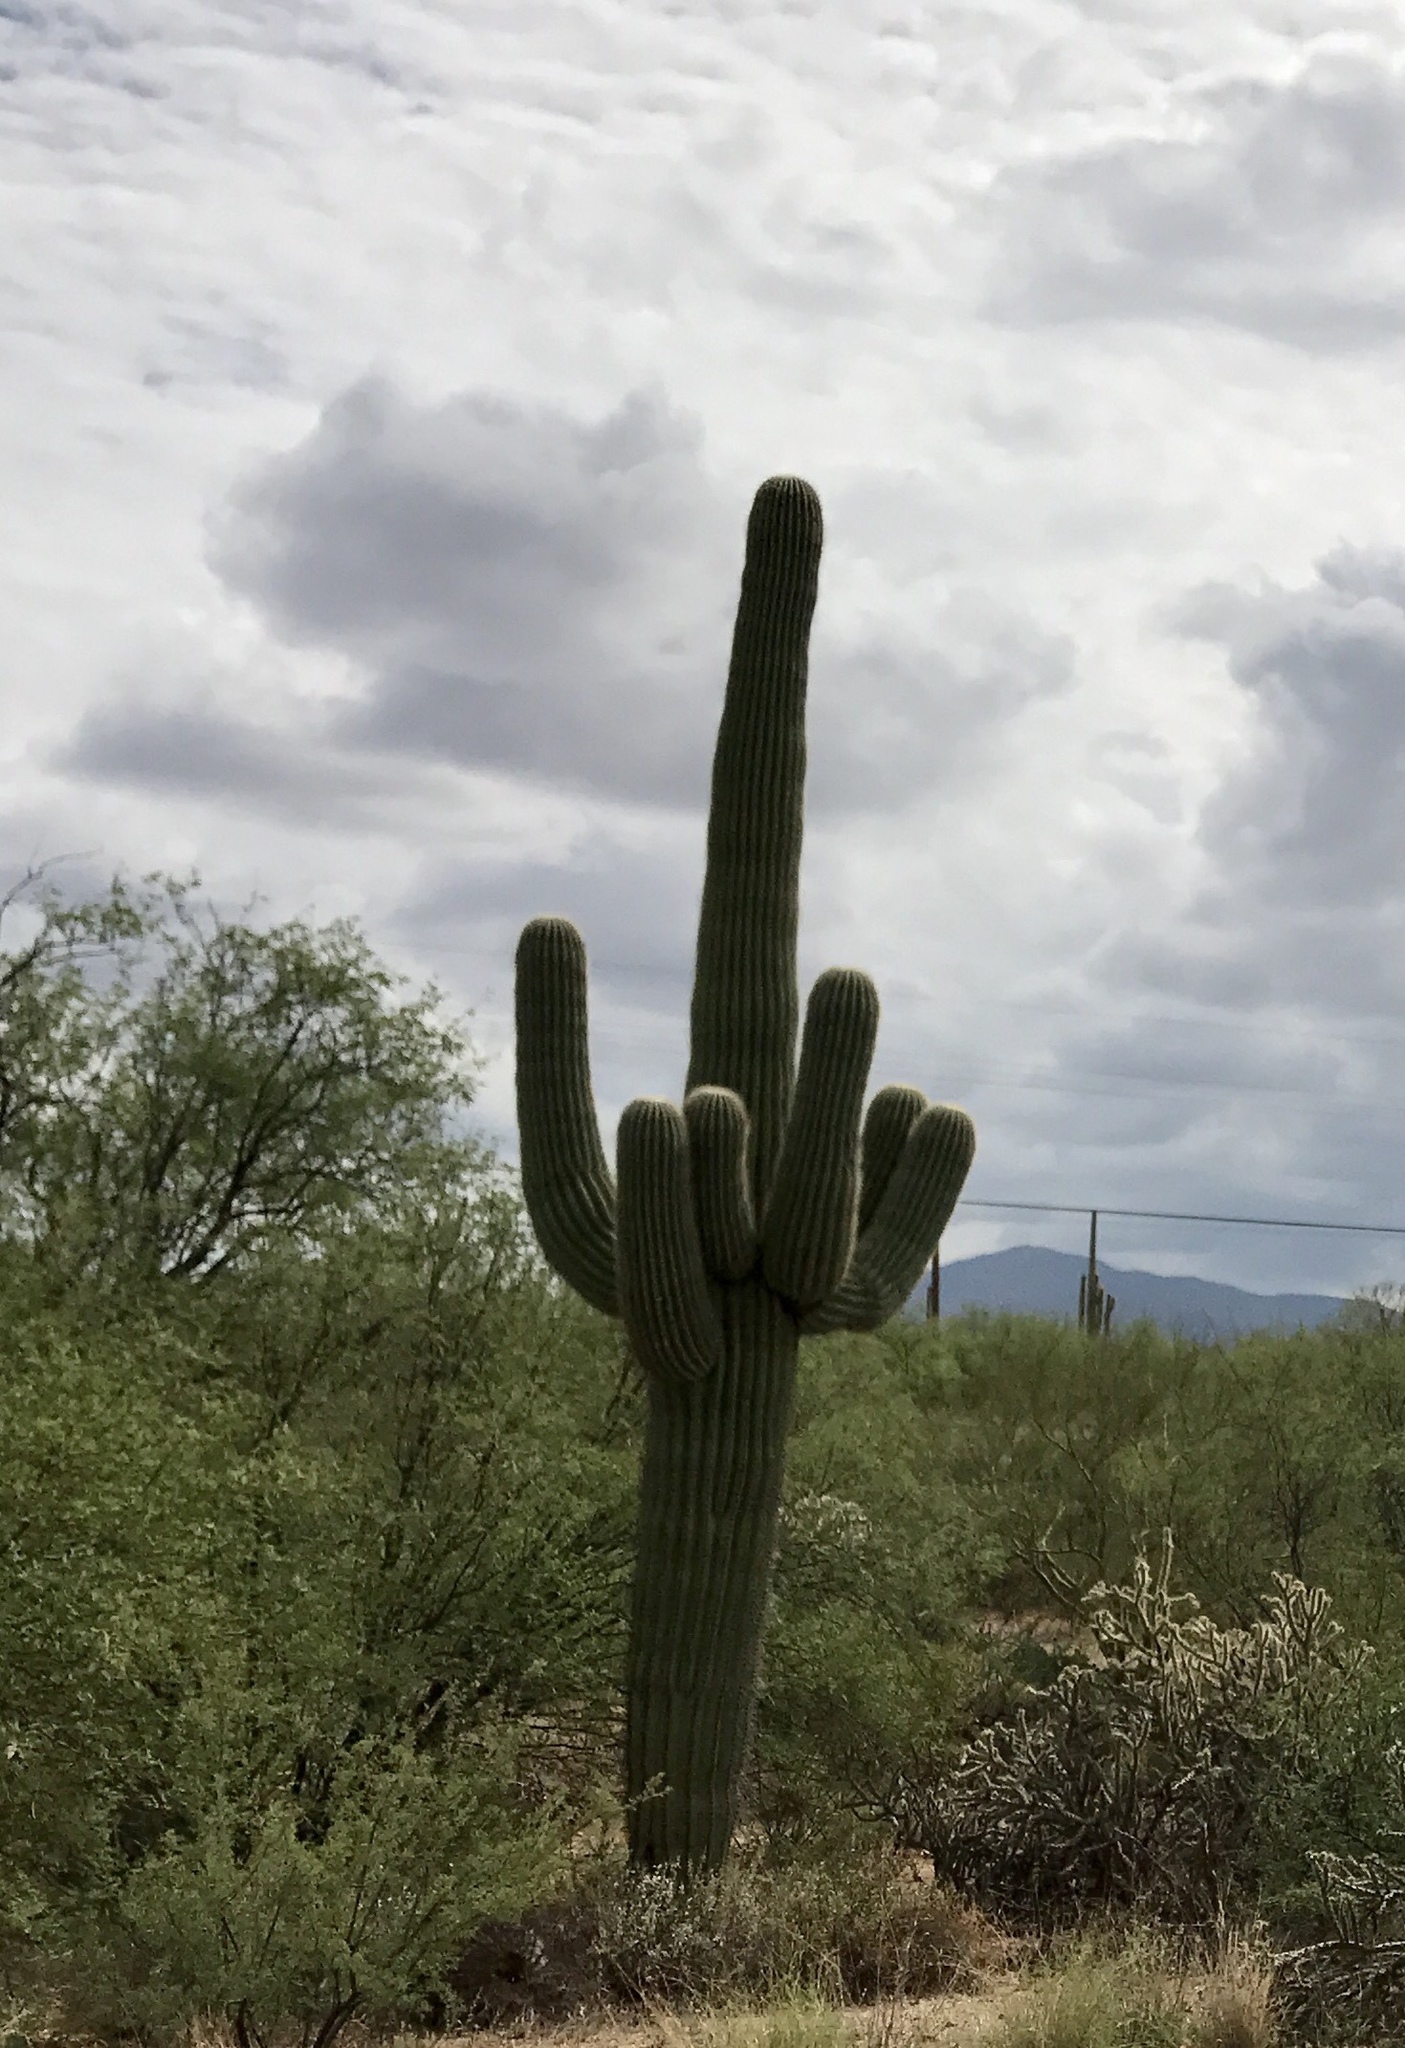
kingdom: Plantae
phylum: Tracheophyta
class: Magnoliopsida
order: Caryophyllales
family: Cactaceae
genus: Carnegiea
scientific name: Carnegiea gigantea
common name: Saguaro
